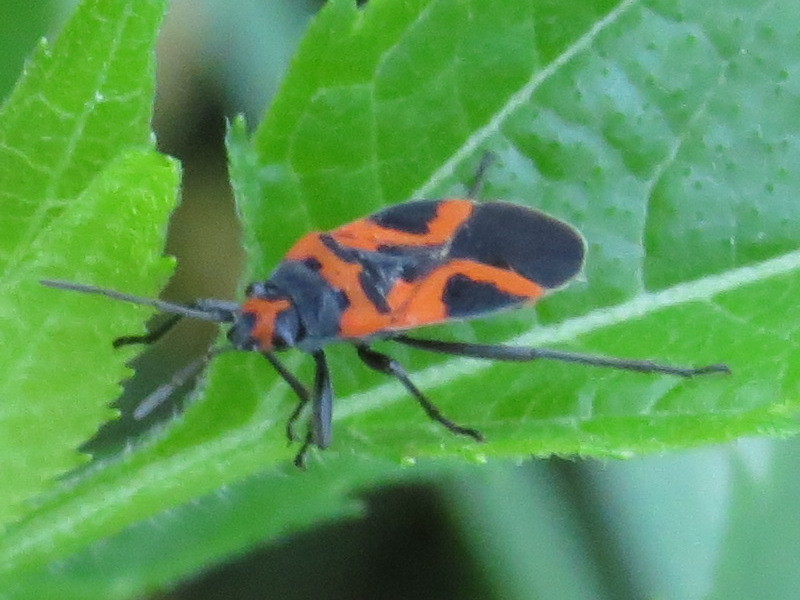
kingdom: Animalia
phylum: Arthropoda
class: Insecta
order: Hemiptera
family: Lygaeidae
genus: Lygaeus
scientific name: Lygaeus turcicus
